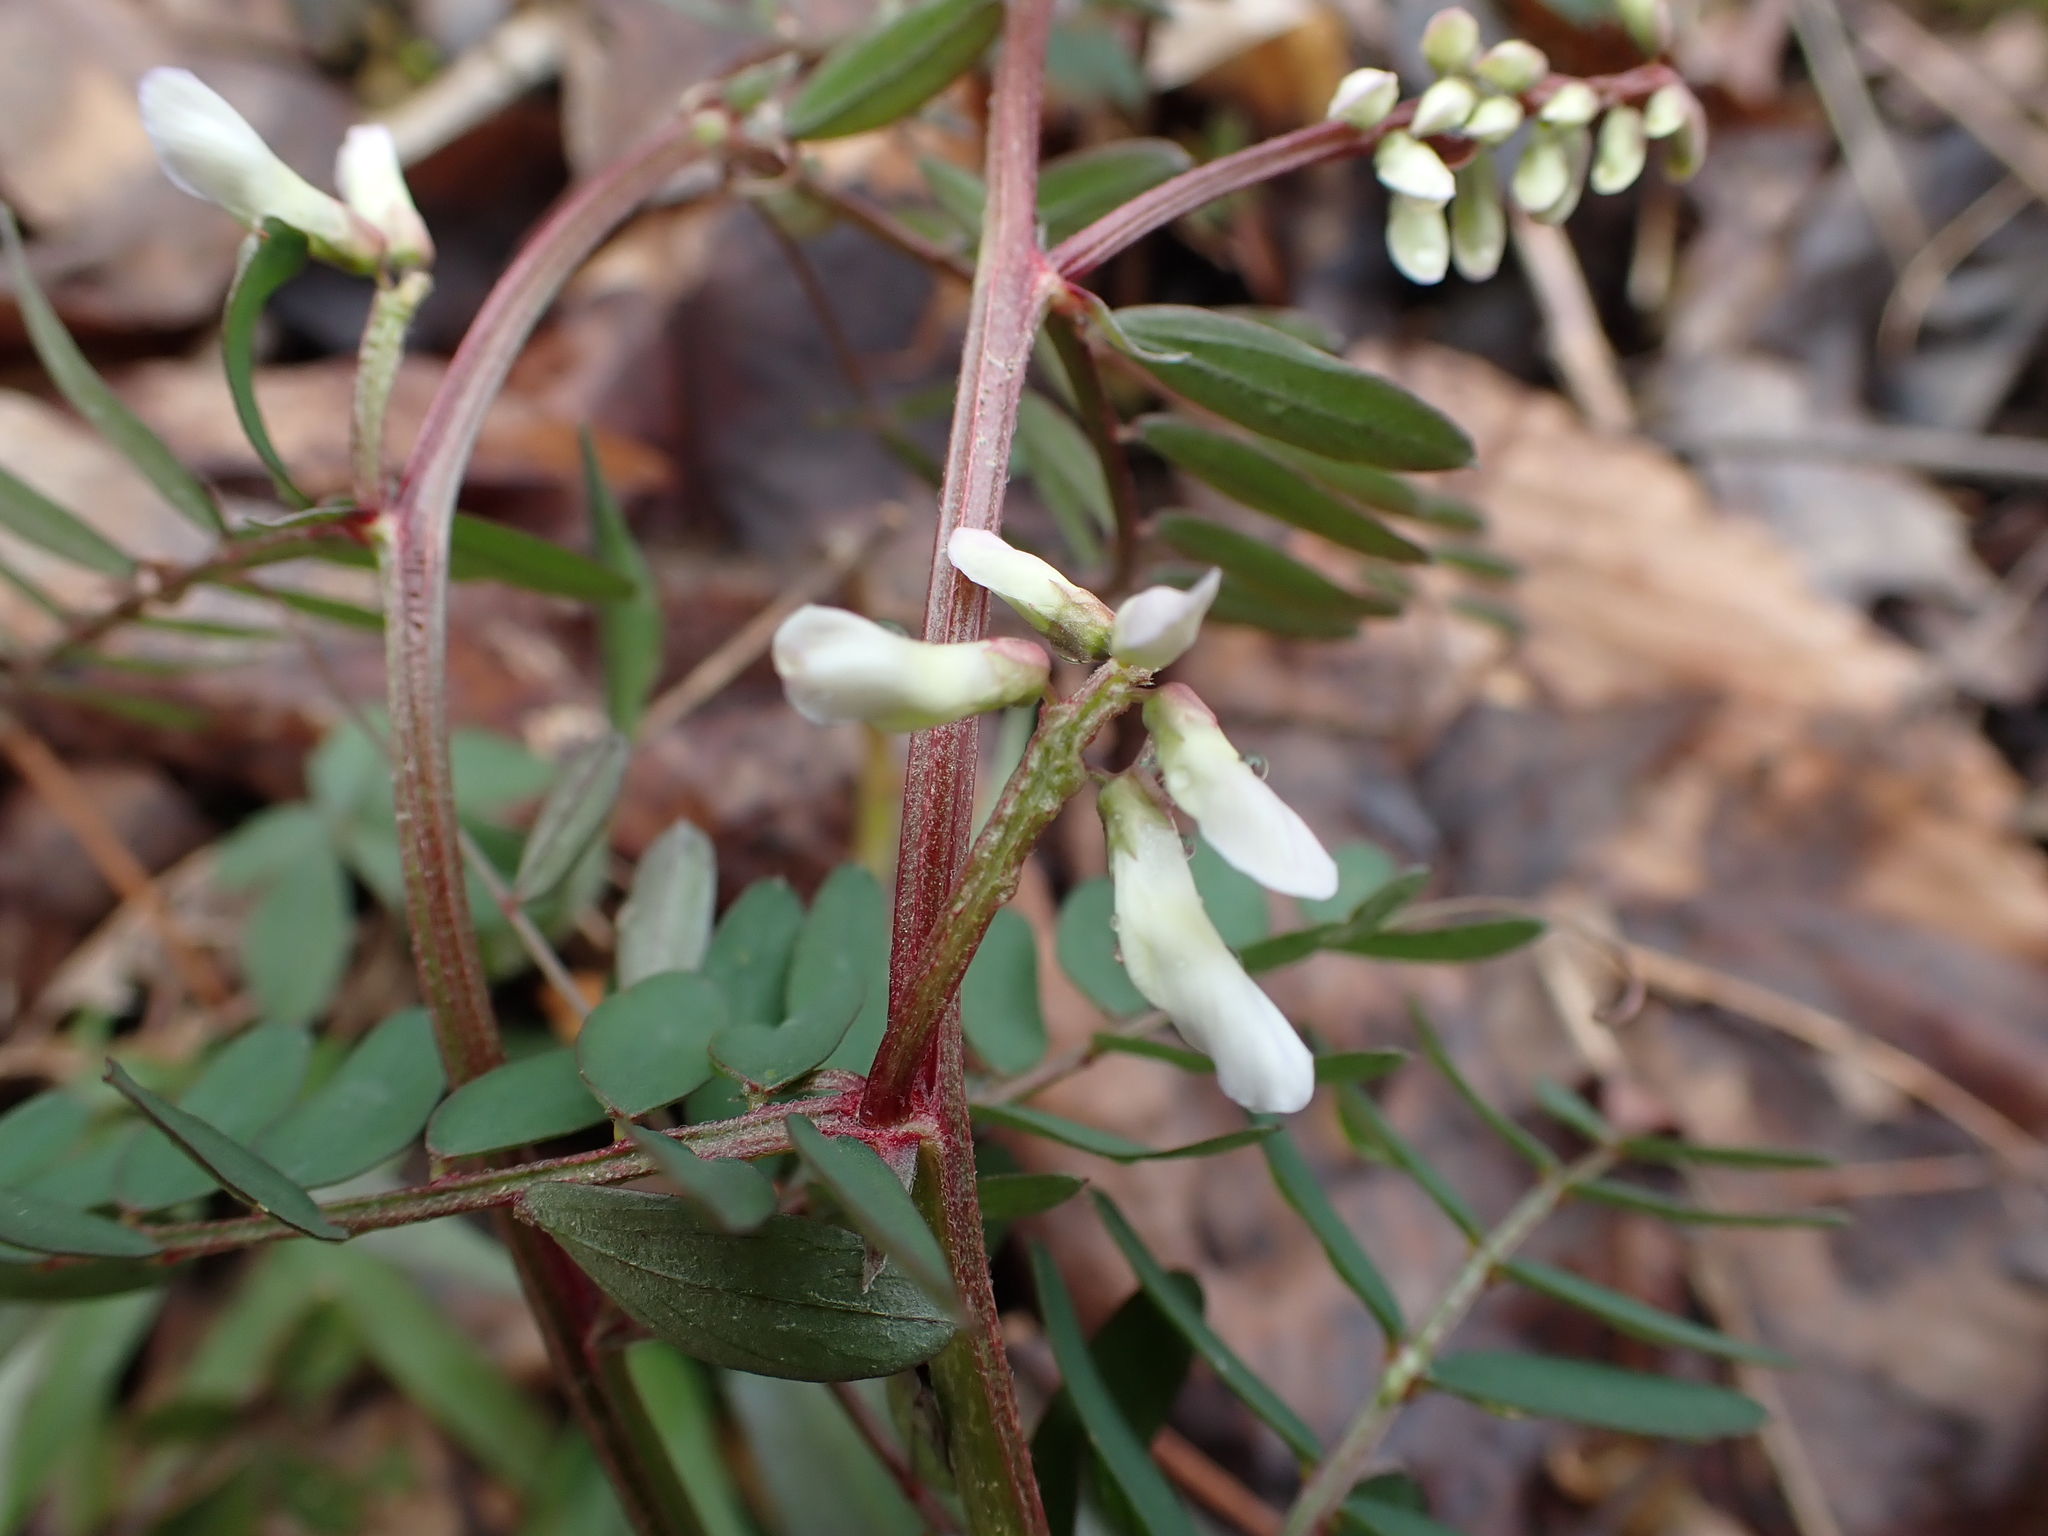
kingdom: Plantae
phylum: Tracheophyta
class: Magnoliopsida
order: Fabales
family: Fabaceae
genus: Vicia
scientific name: Vicia caroliniana
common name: Carolina vetch
